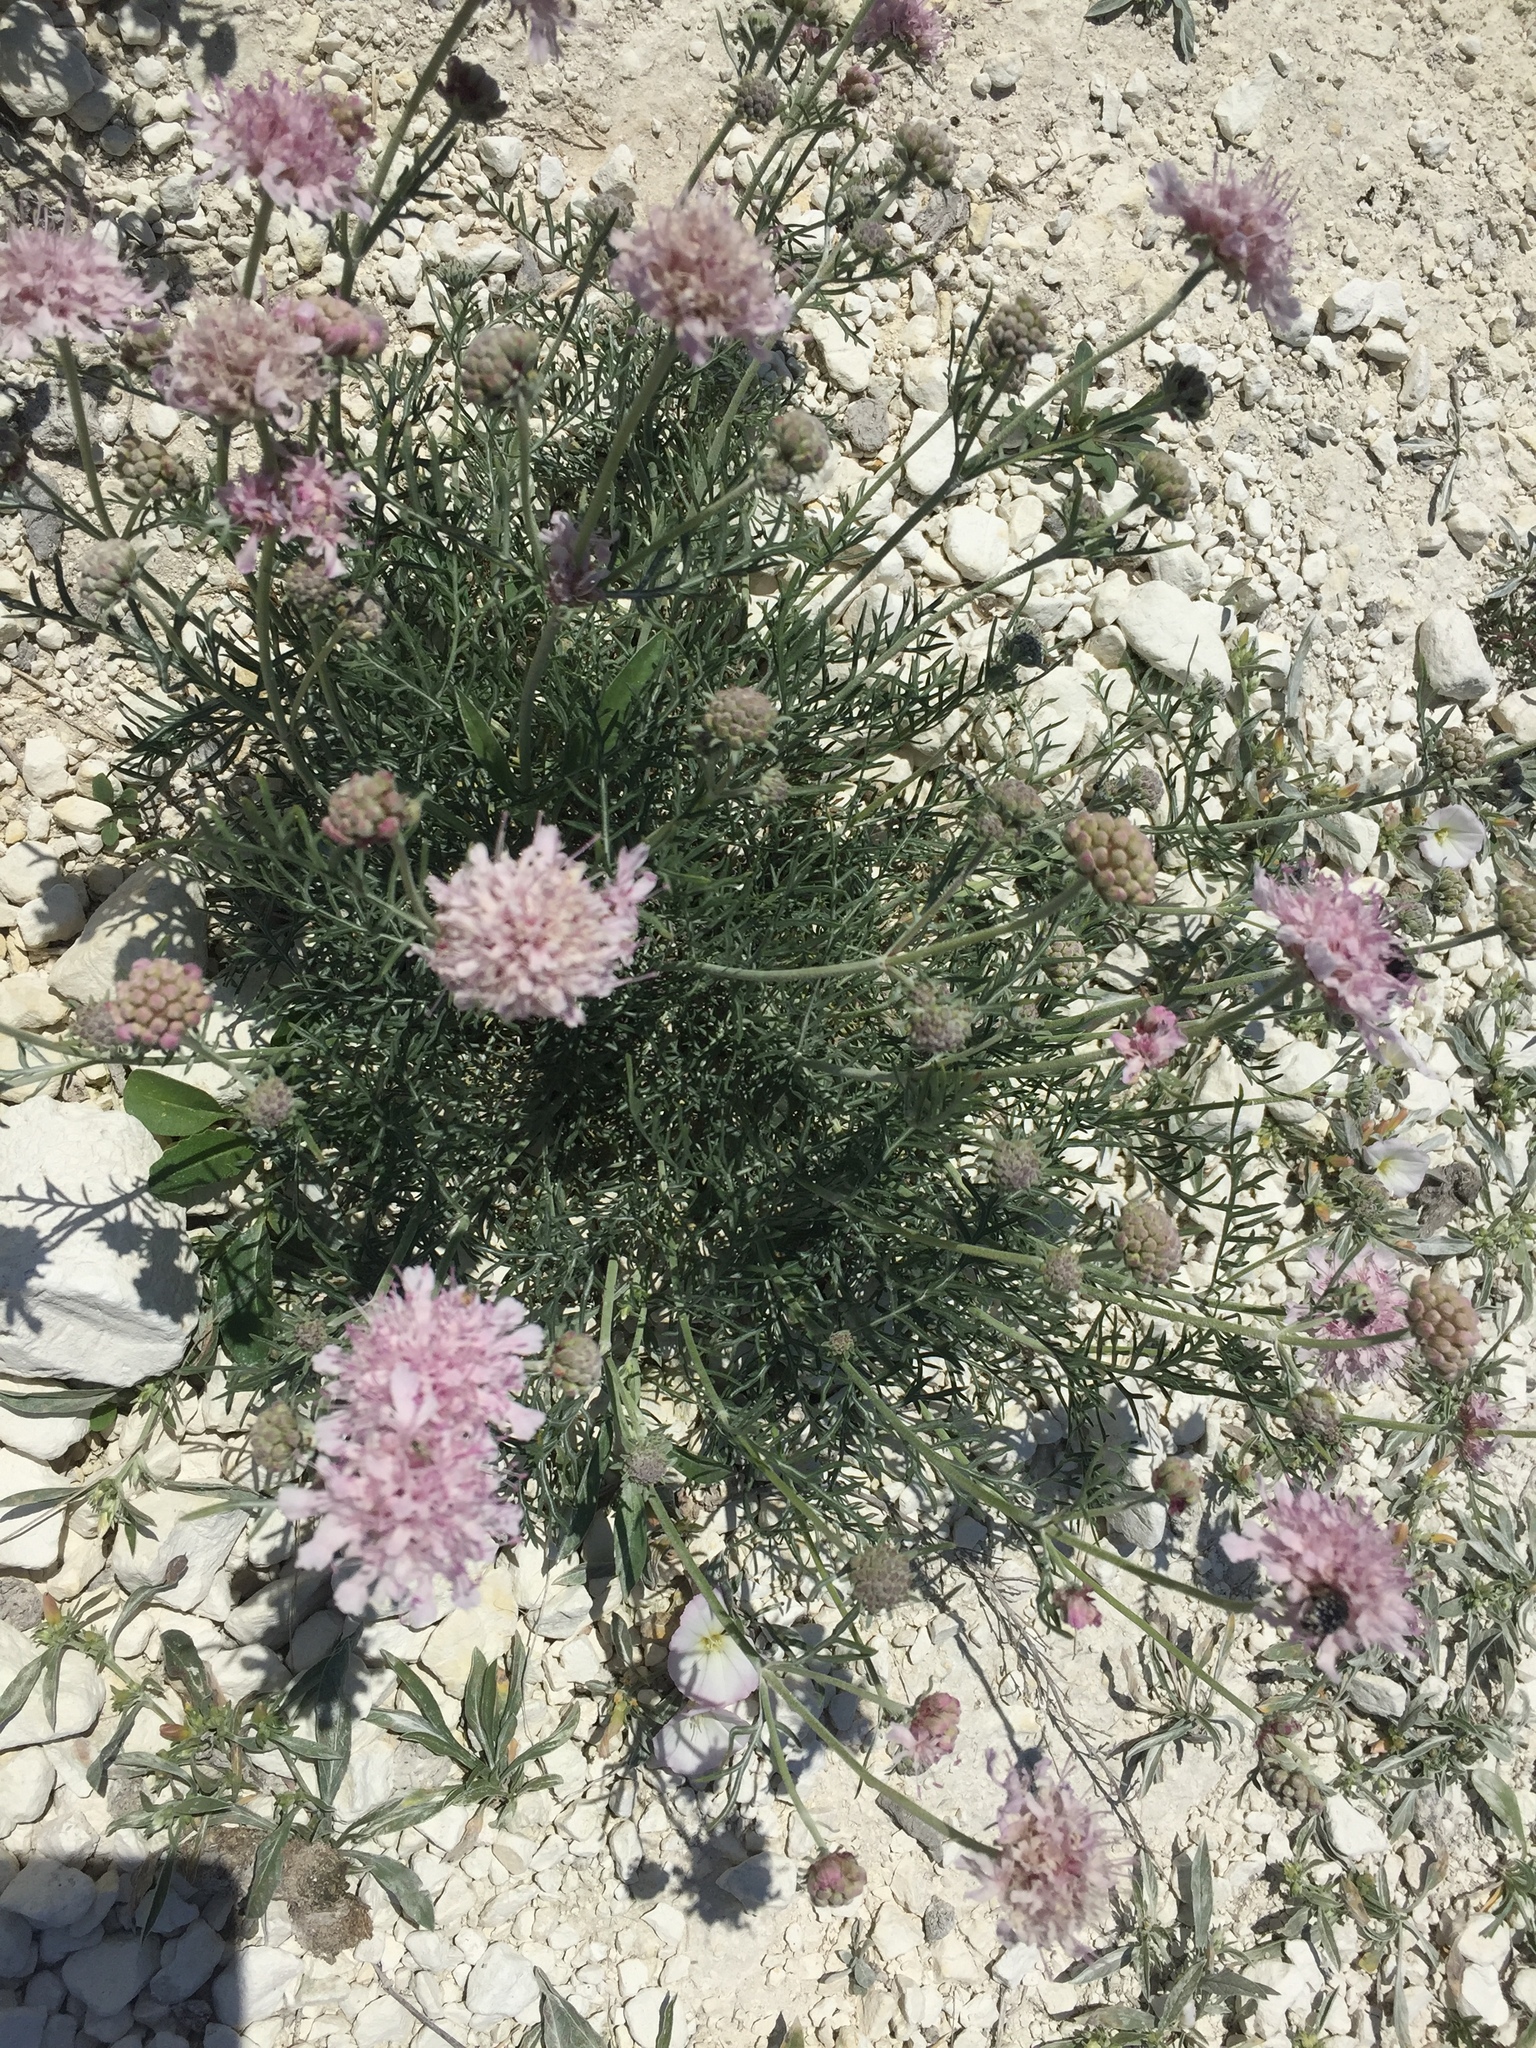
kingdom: Plantae
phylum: Tracheophyta
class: Magnoliopsida
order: Dipsacales
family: Caprifoliaceae
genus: Lomelosia
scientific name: Lomelosia isetensis
